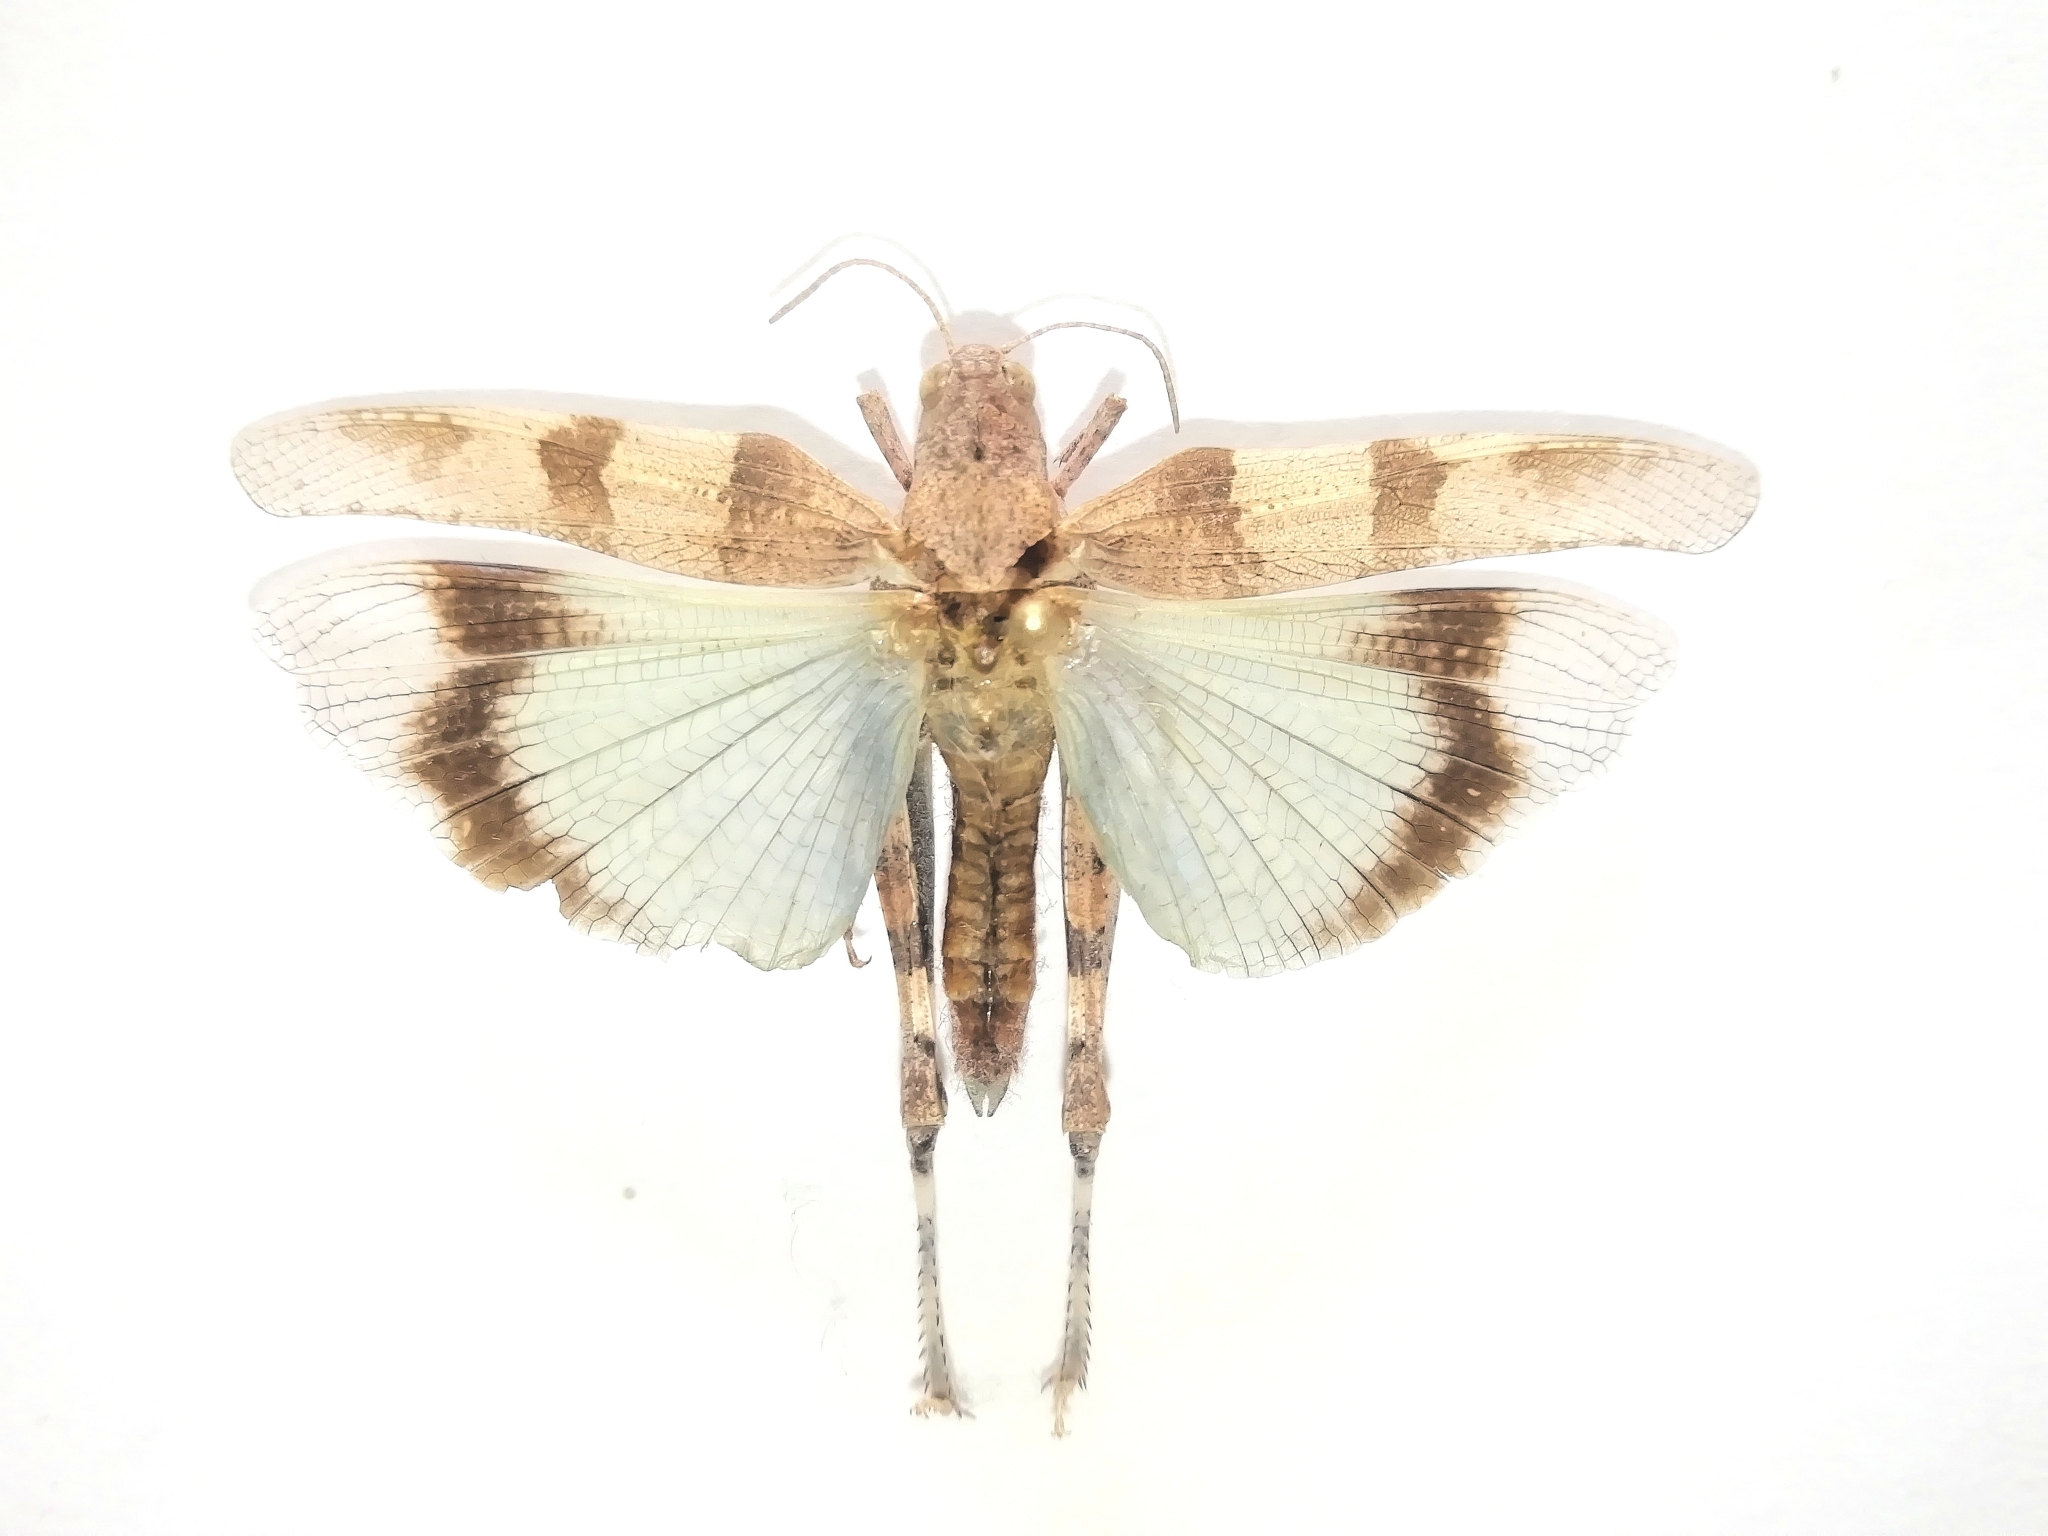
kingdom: Animalia
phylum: Arthropoda
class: Insecta
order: Orthoptera
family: Acrididae
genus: Oedipoda
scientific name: Oedipoda caerulescens
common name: Blue-winged grasshopper
